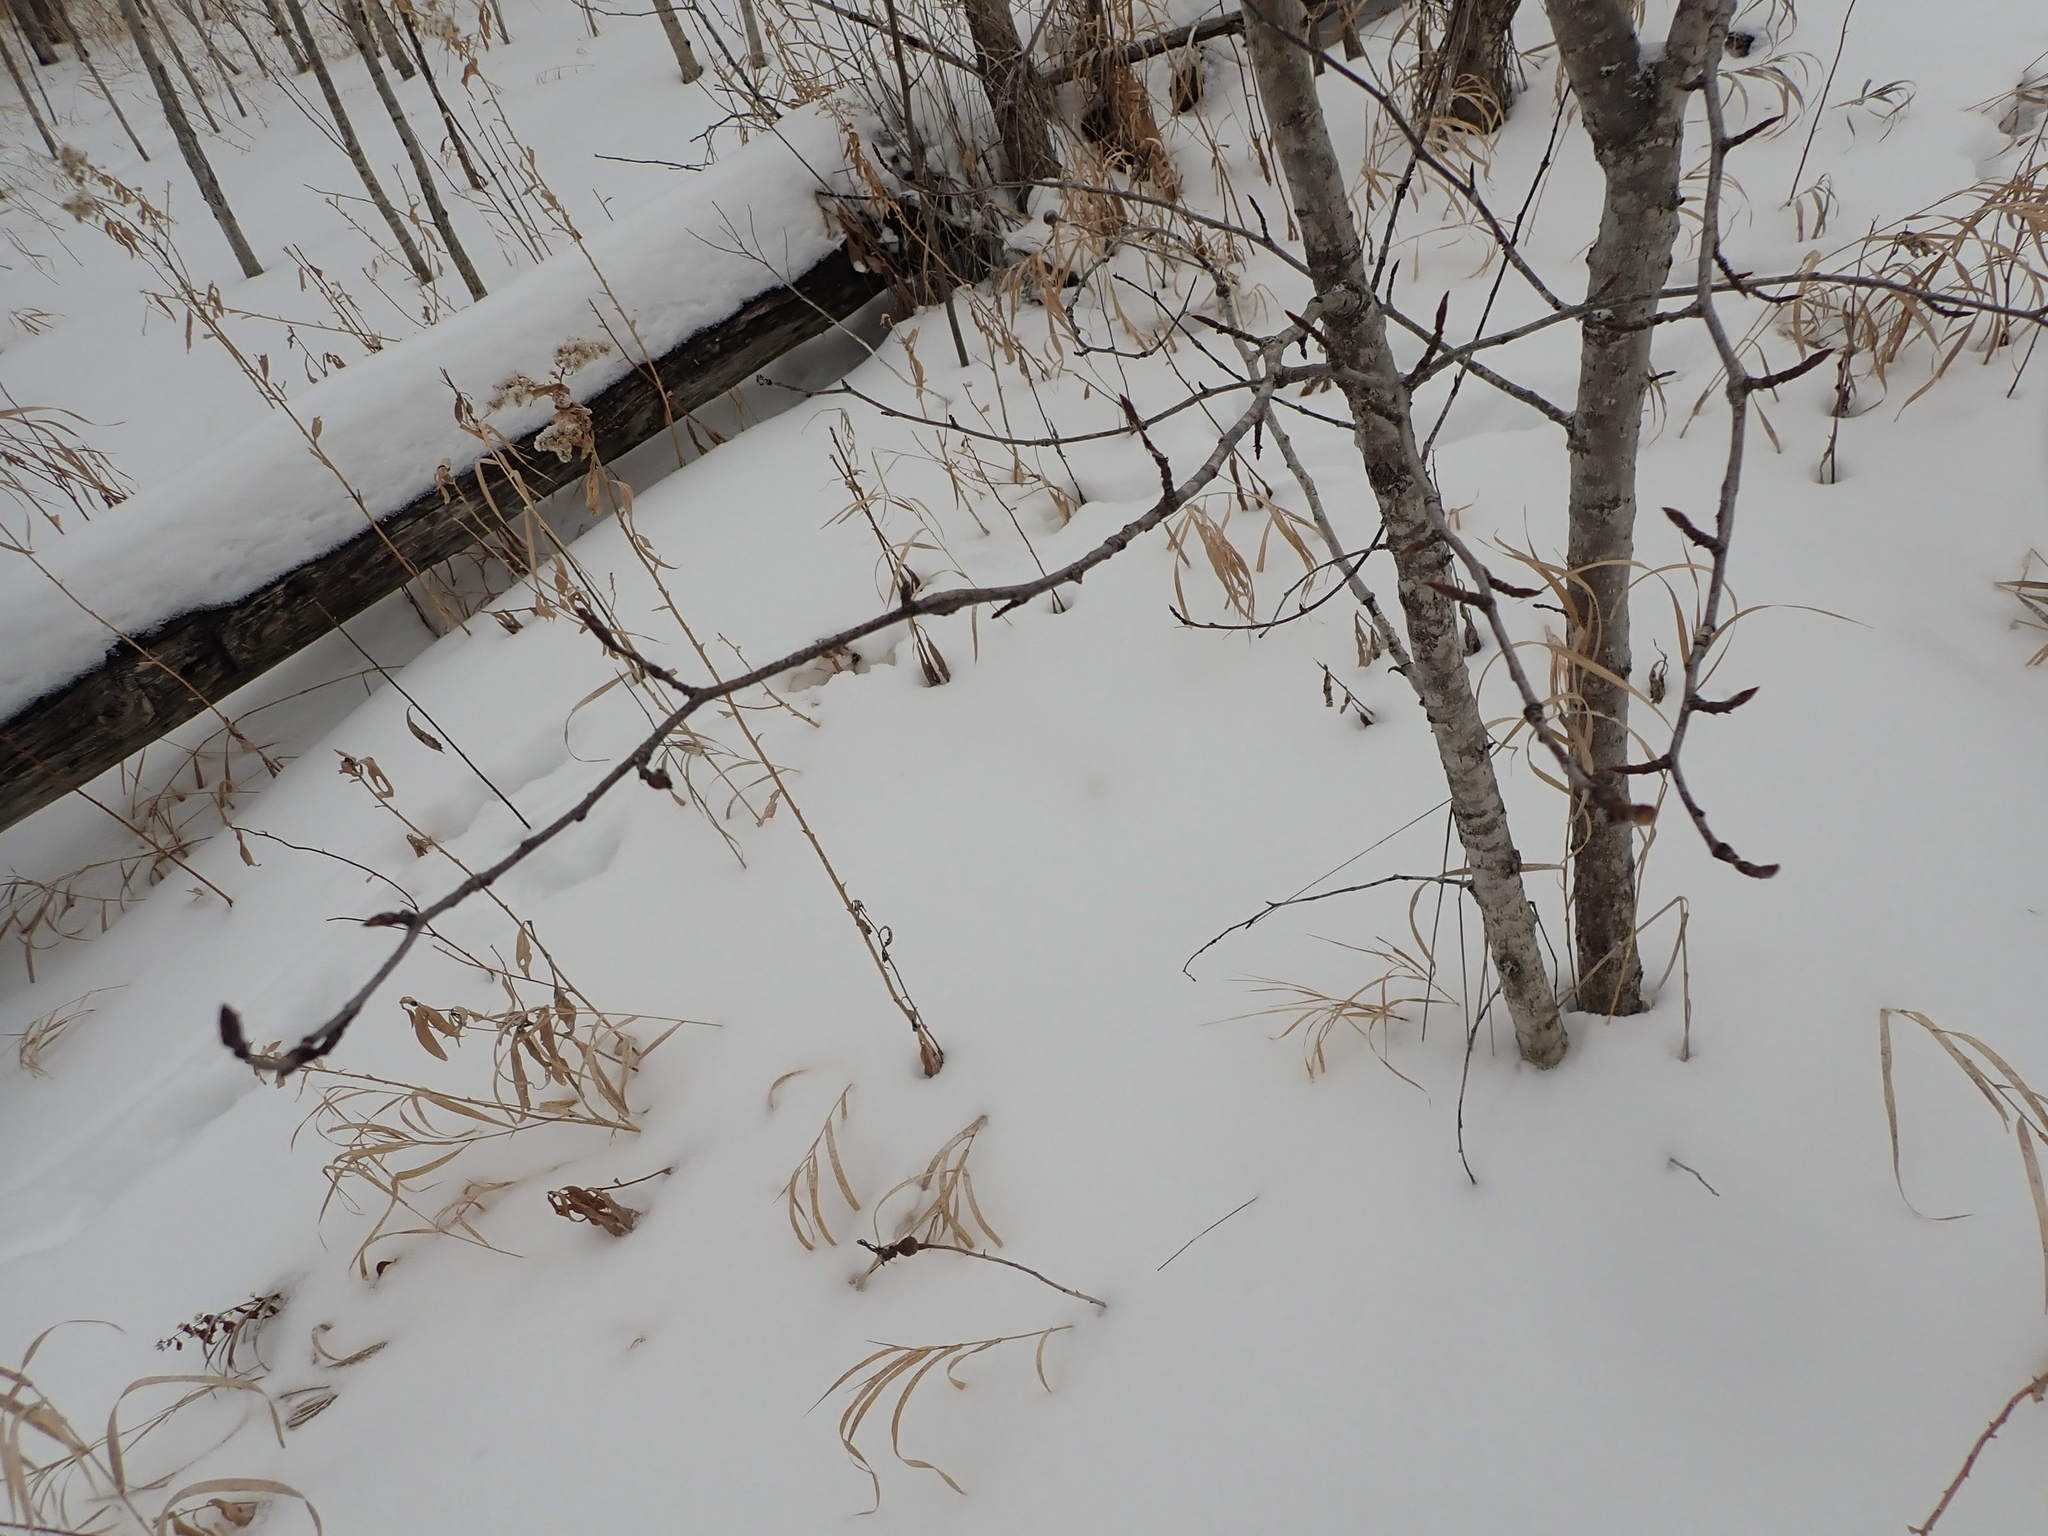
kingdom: Plantae
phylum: Tracheophyta
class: Magnoliopsida
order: Malpighiales
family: Salicaceae
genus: Populus
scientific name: Populus balsamifera
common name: Balsam poplar
